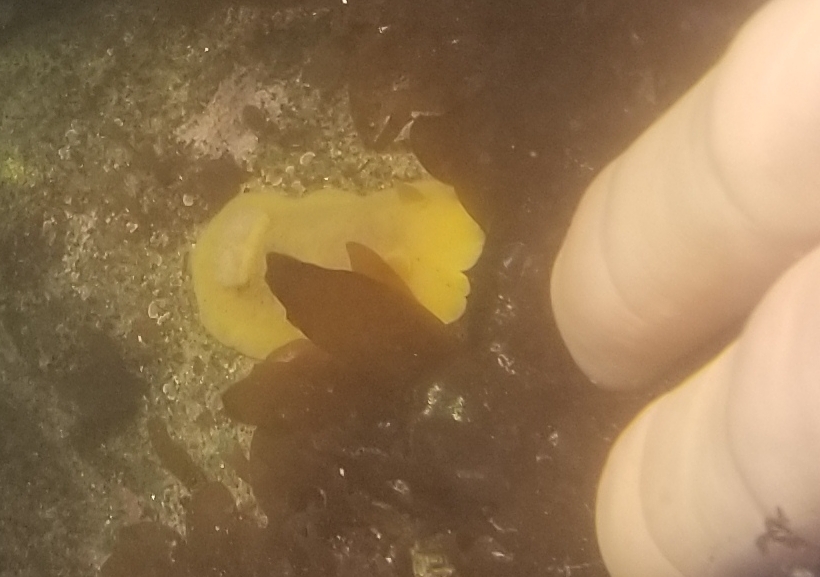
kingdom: Animalia
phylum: Mollusca
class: Gastropoda
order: Nudibranchia
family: Discodorididae
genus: Geitodoris
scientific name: Geitodoris heathi
